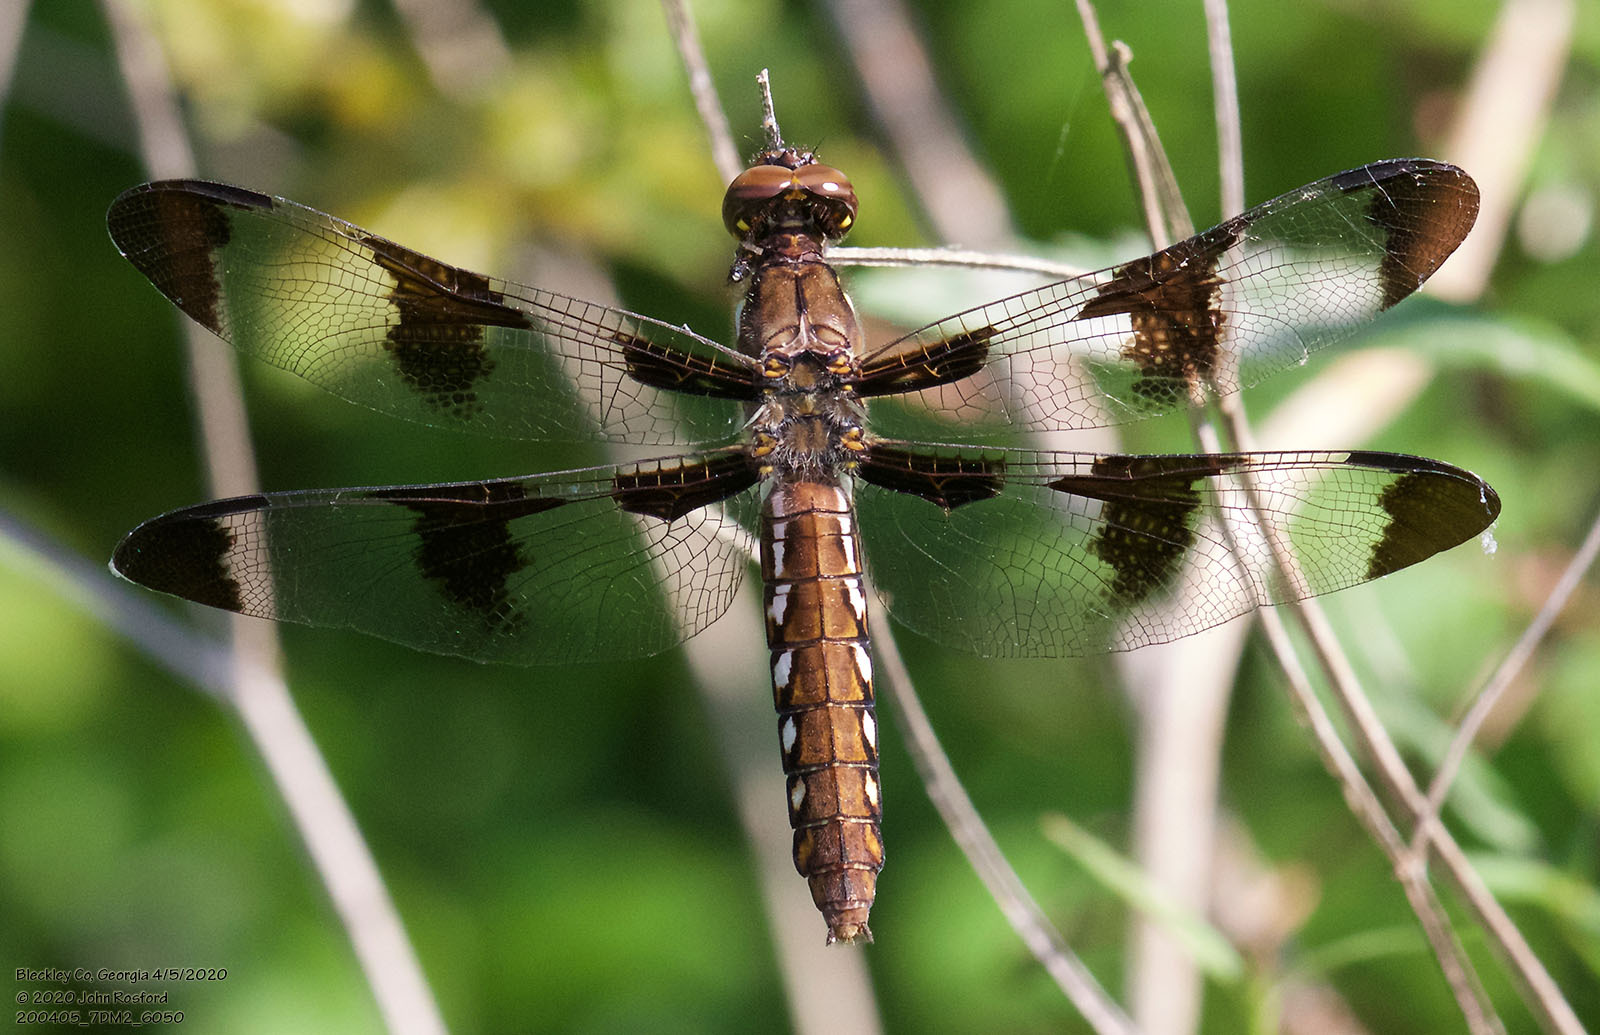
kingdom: Animalia
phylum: Arthropoda
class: Insecta
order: Odonata
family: Libellulidae
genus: Plathemis
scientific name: Plathemis lydia
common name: Common whitetail
